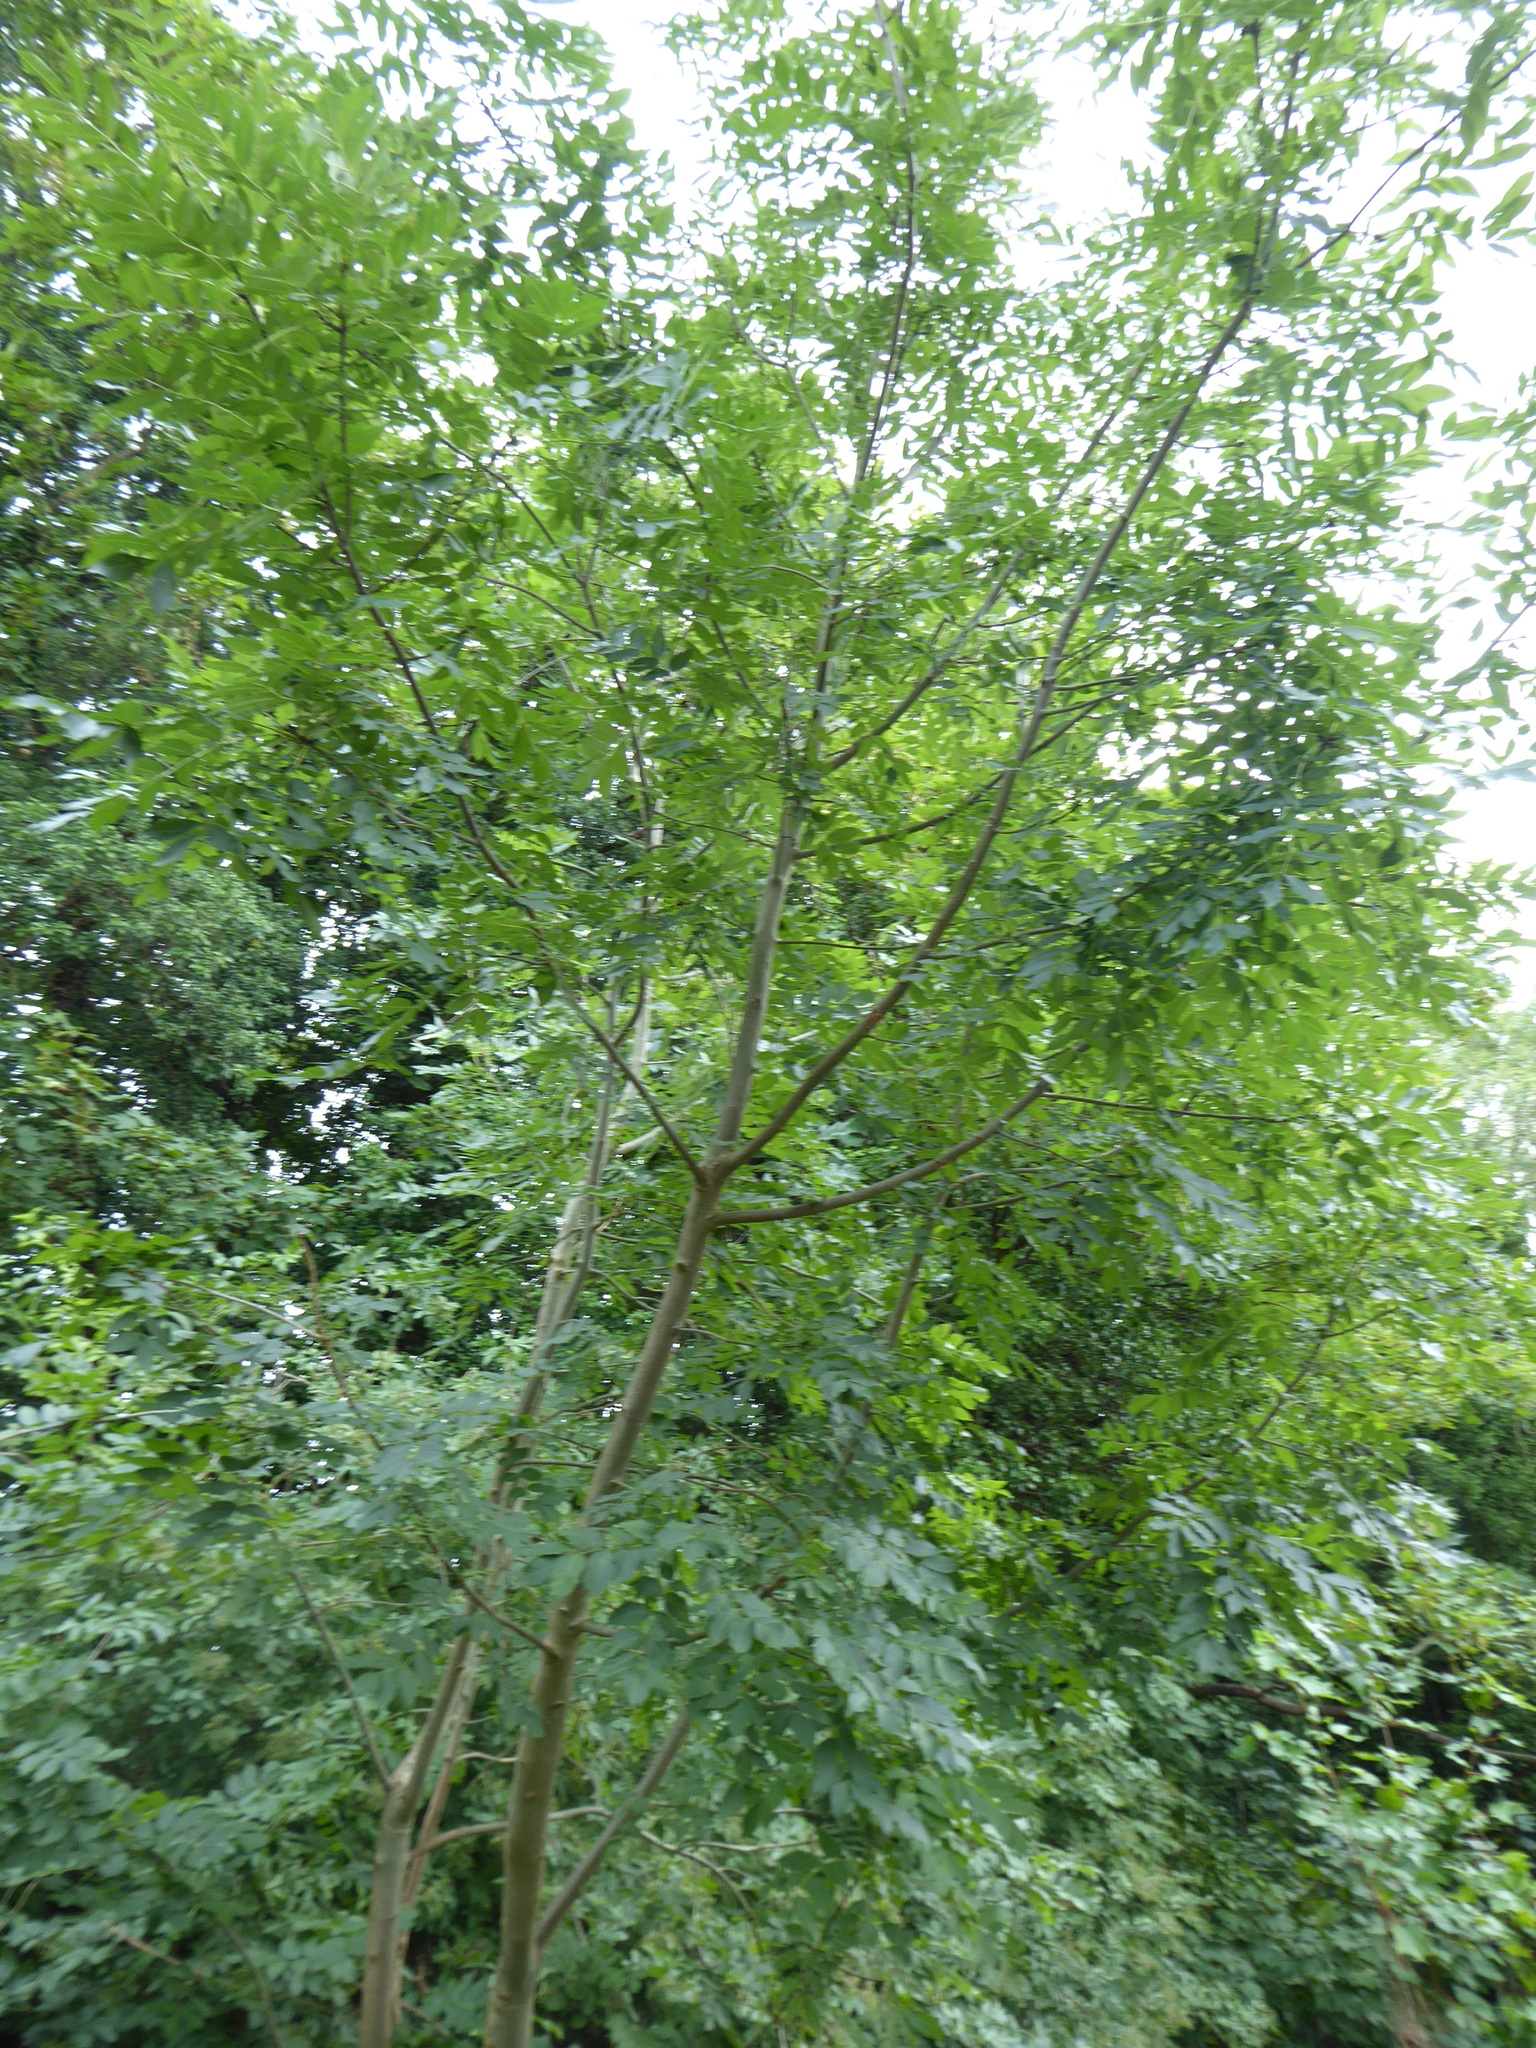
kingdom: Plantae
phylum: Tracheophyta
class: Magnoliopsida
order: Lamiales
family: Oleaceae
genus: Fraxinus
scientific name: Fraxinus excelsior
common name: European ash
